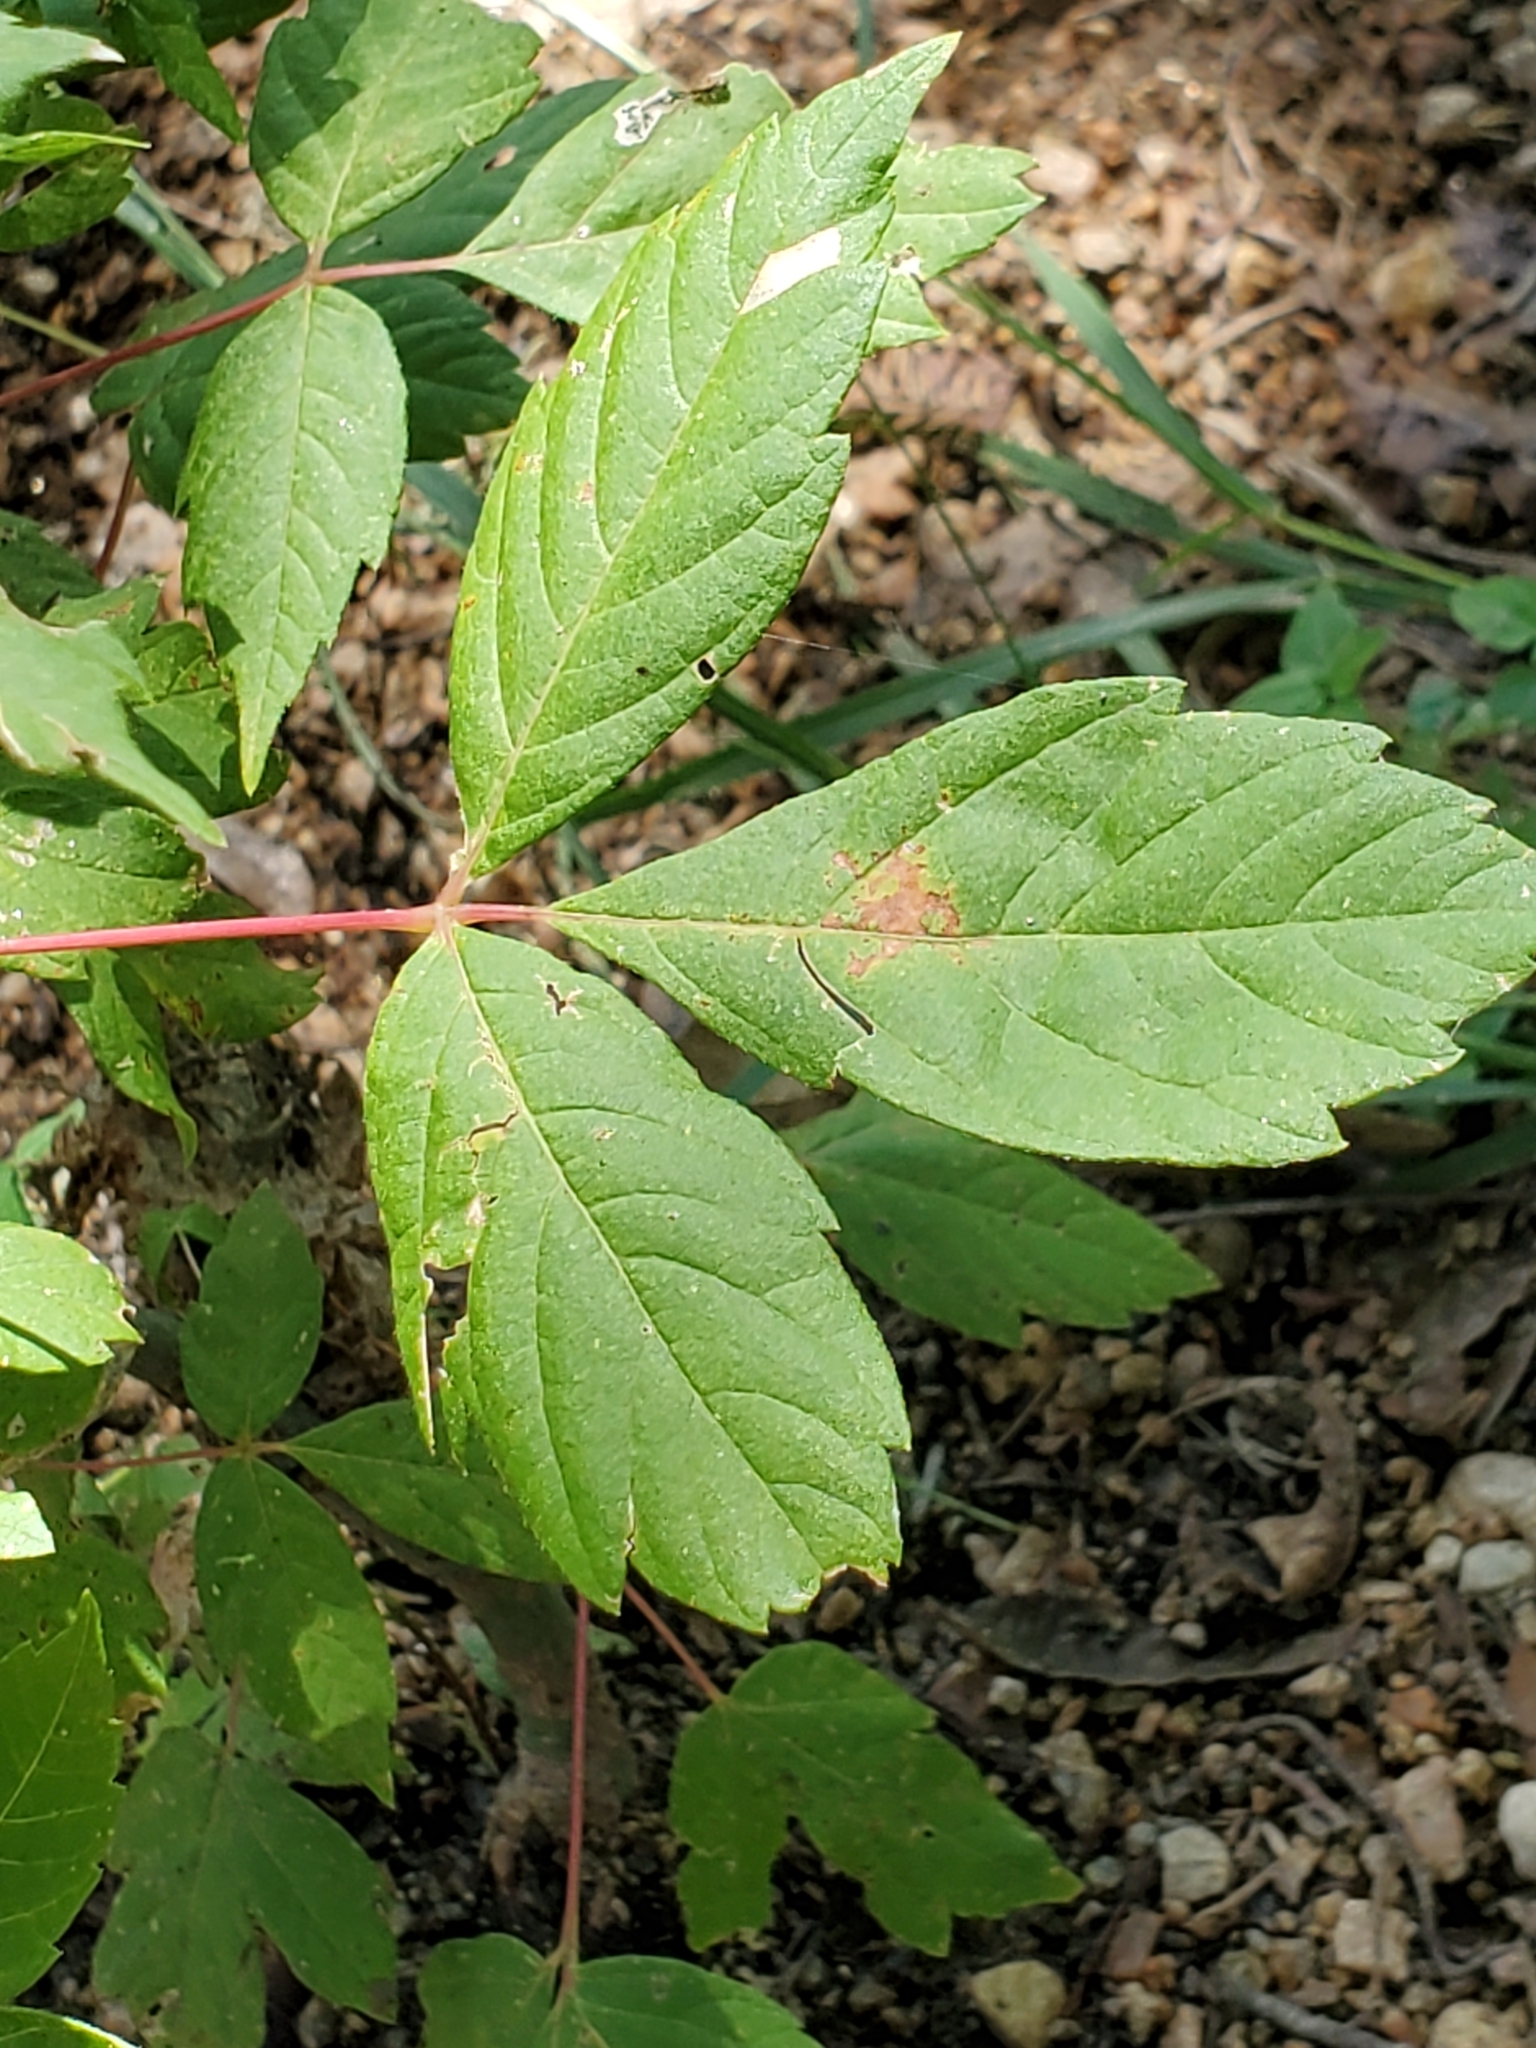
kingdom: Plantae
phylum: Tracheophyta
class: Magnoliopsida
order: Sapindales
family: Sapindaceae
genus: Acer
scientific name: Acer negundo
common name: Ashleaf maple
